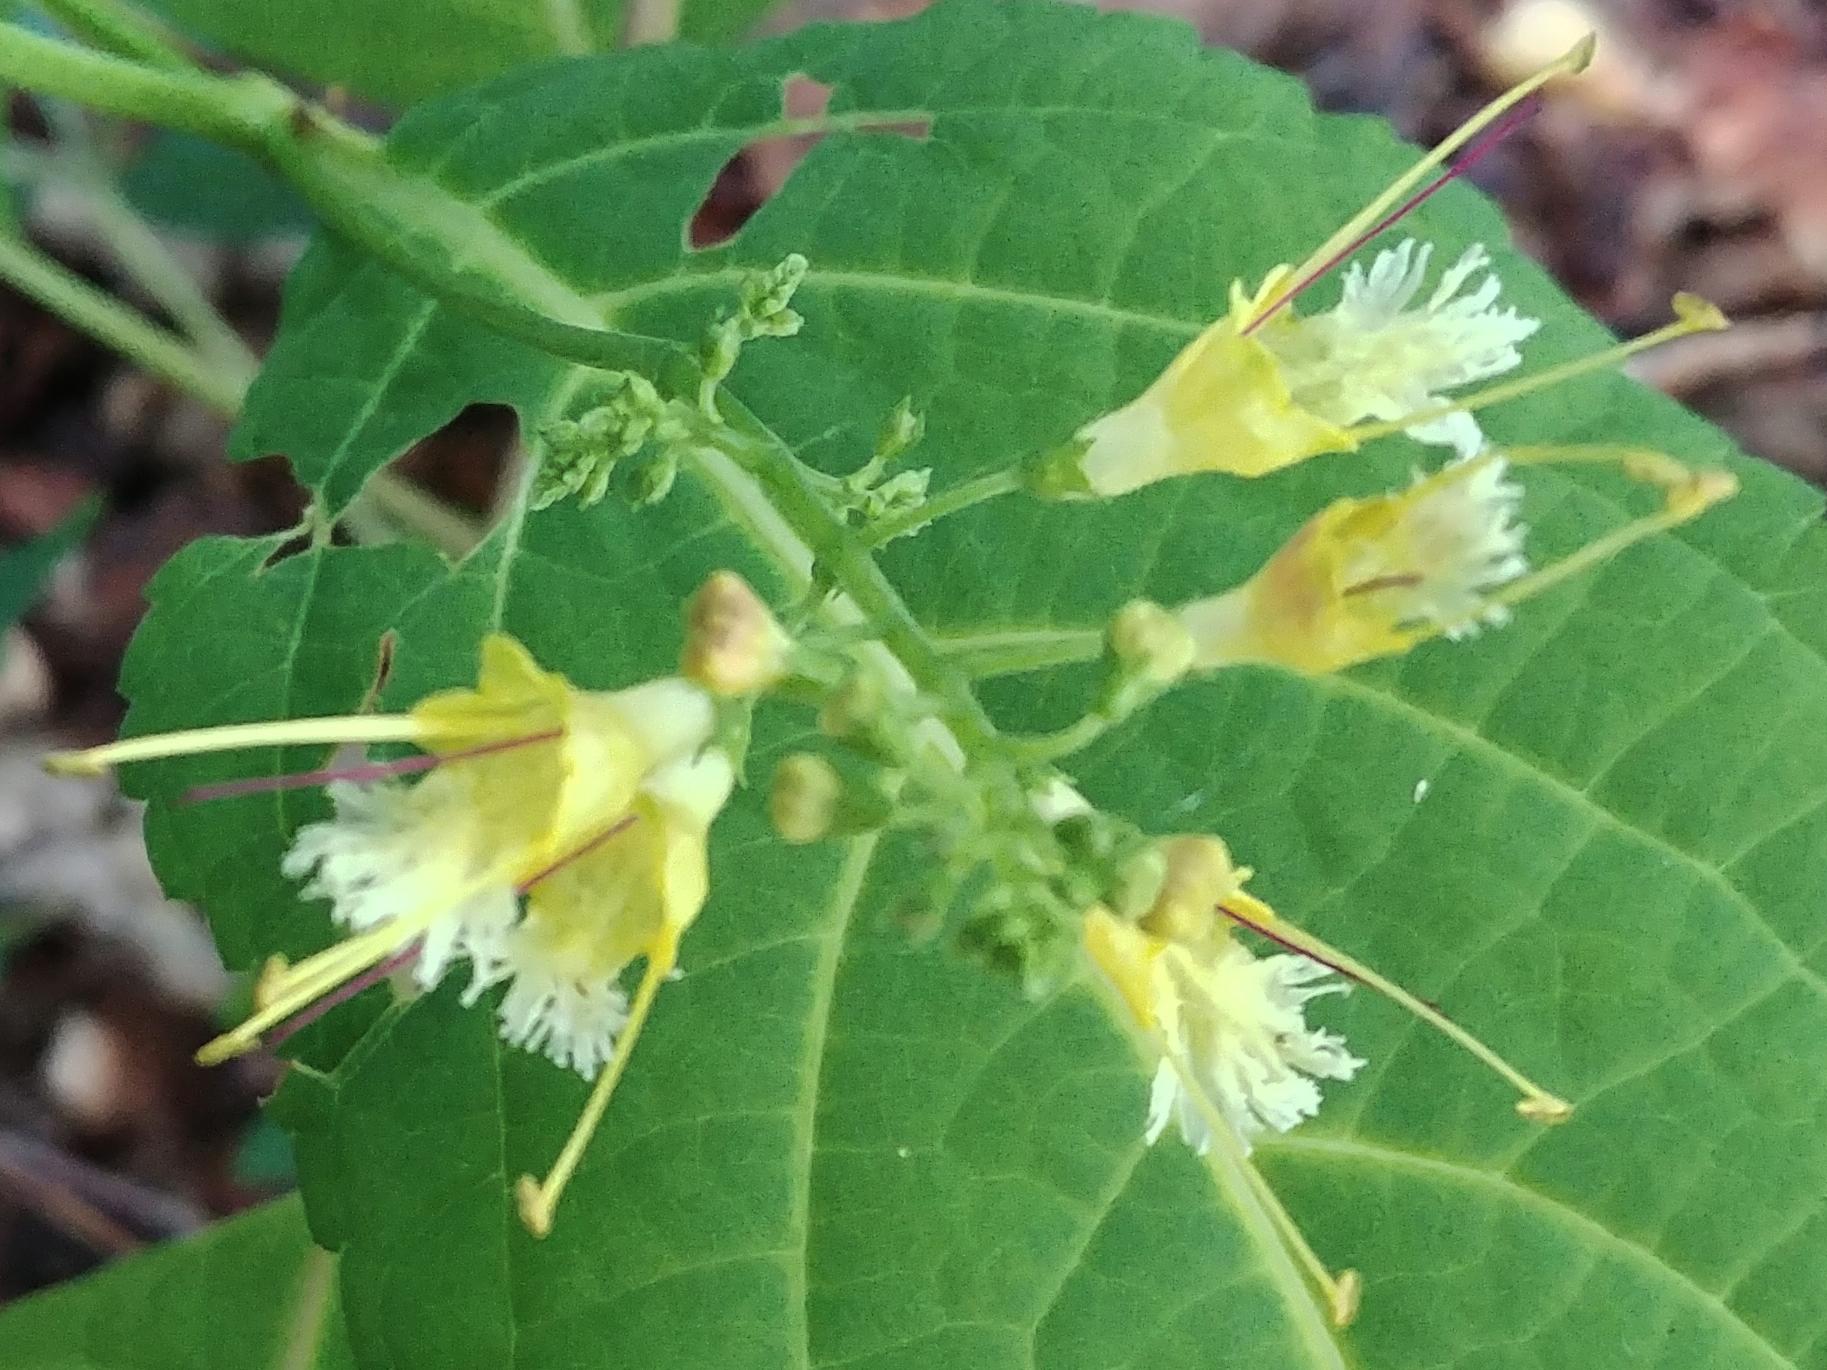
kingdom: Plantae
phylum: Tracheophyta
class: Magnoliopsida
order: Lamiales
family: Lamiaceae
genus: Collinsonia
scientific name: Collinsonia canadensis
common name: Northern horsebalm
